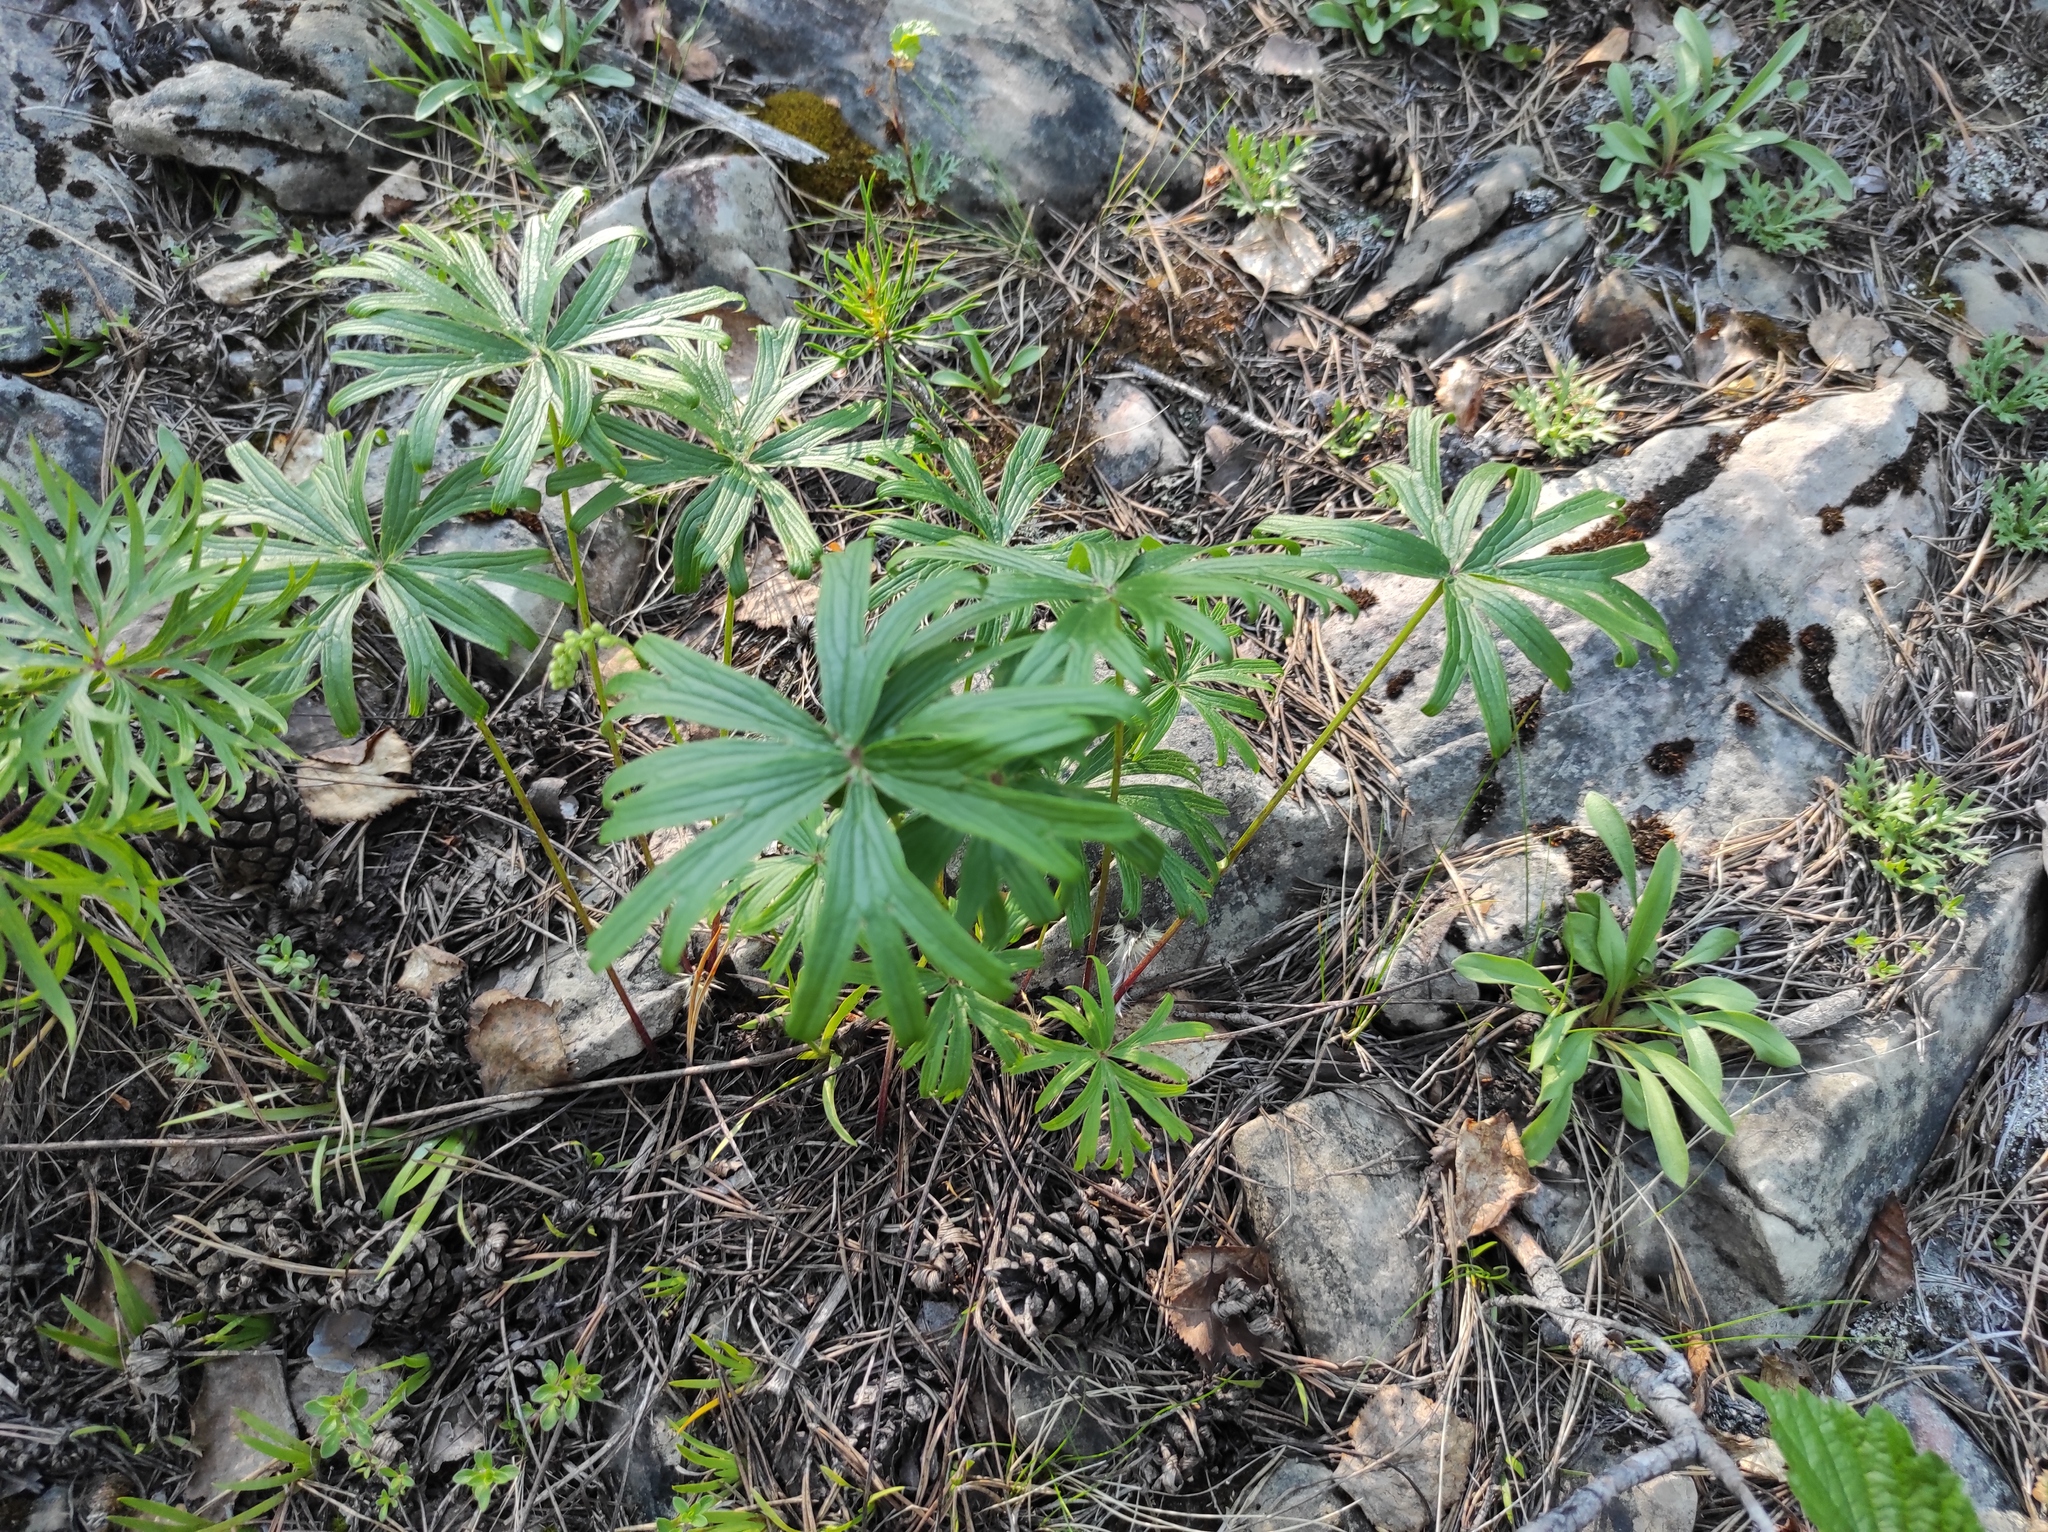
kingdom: Plantae
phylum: Tracheophyta
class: Magnoliopsida
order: Ranunculales
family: Ranunculaceae
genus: Pulsatilla
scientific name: Pulsatilla patens
